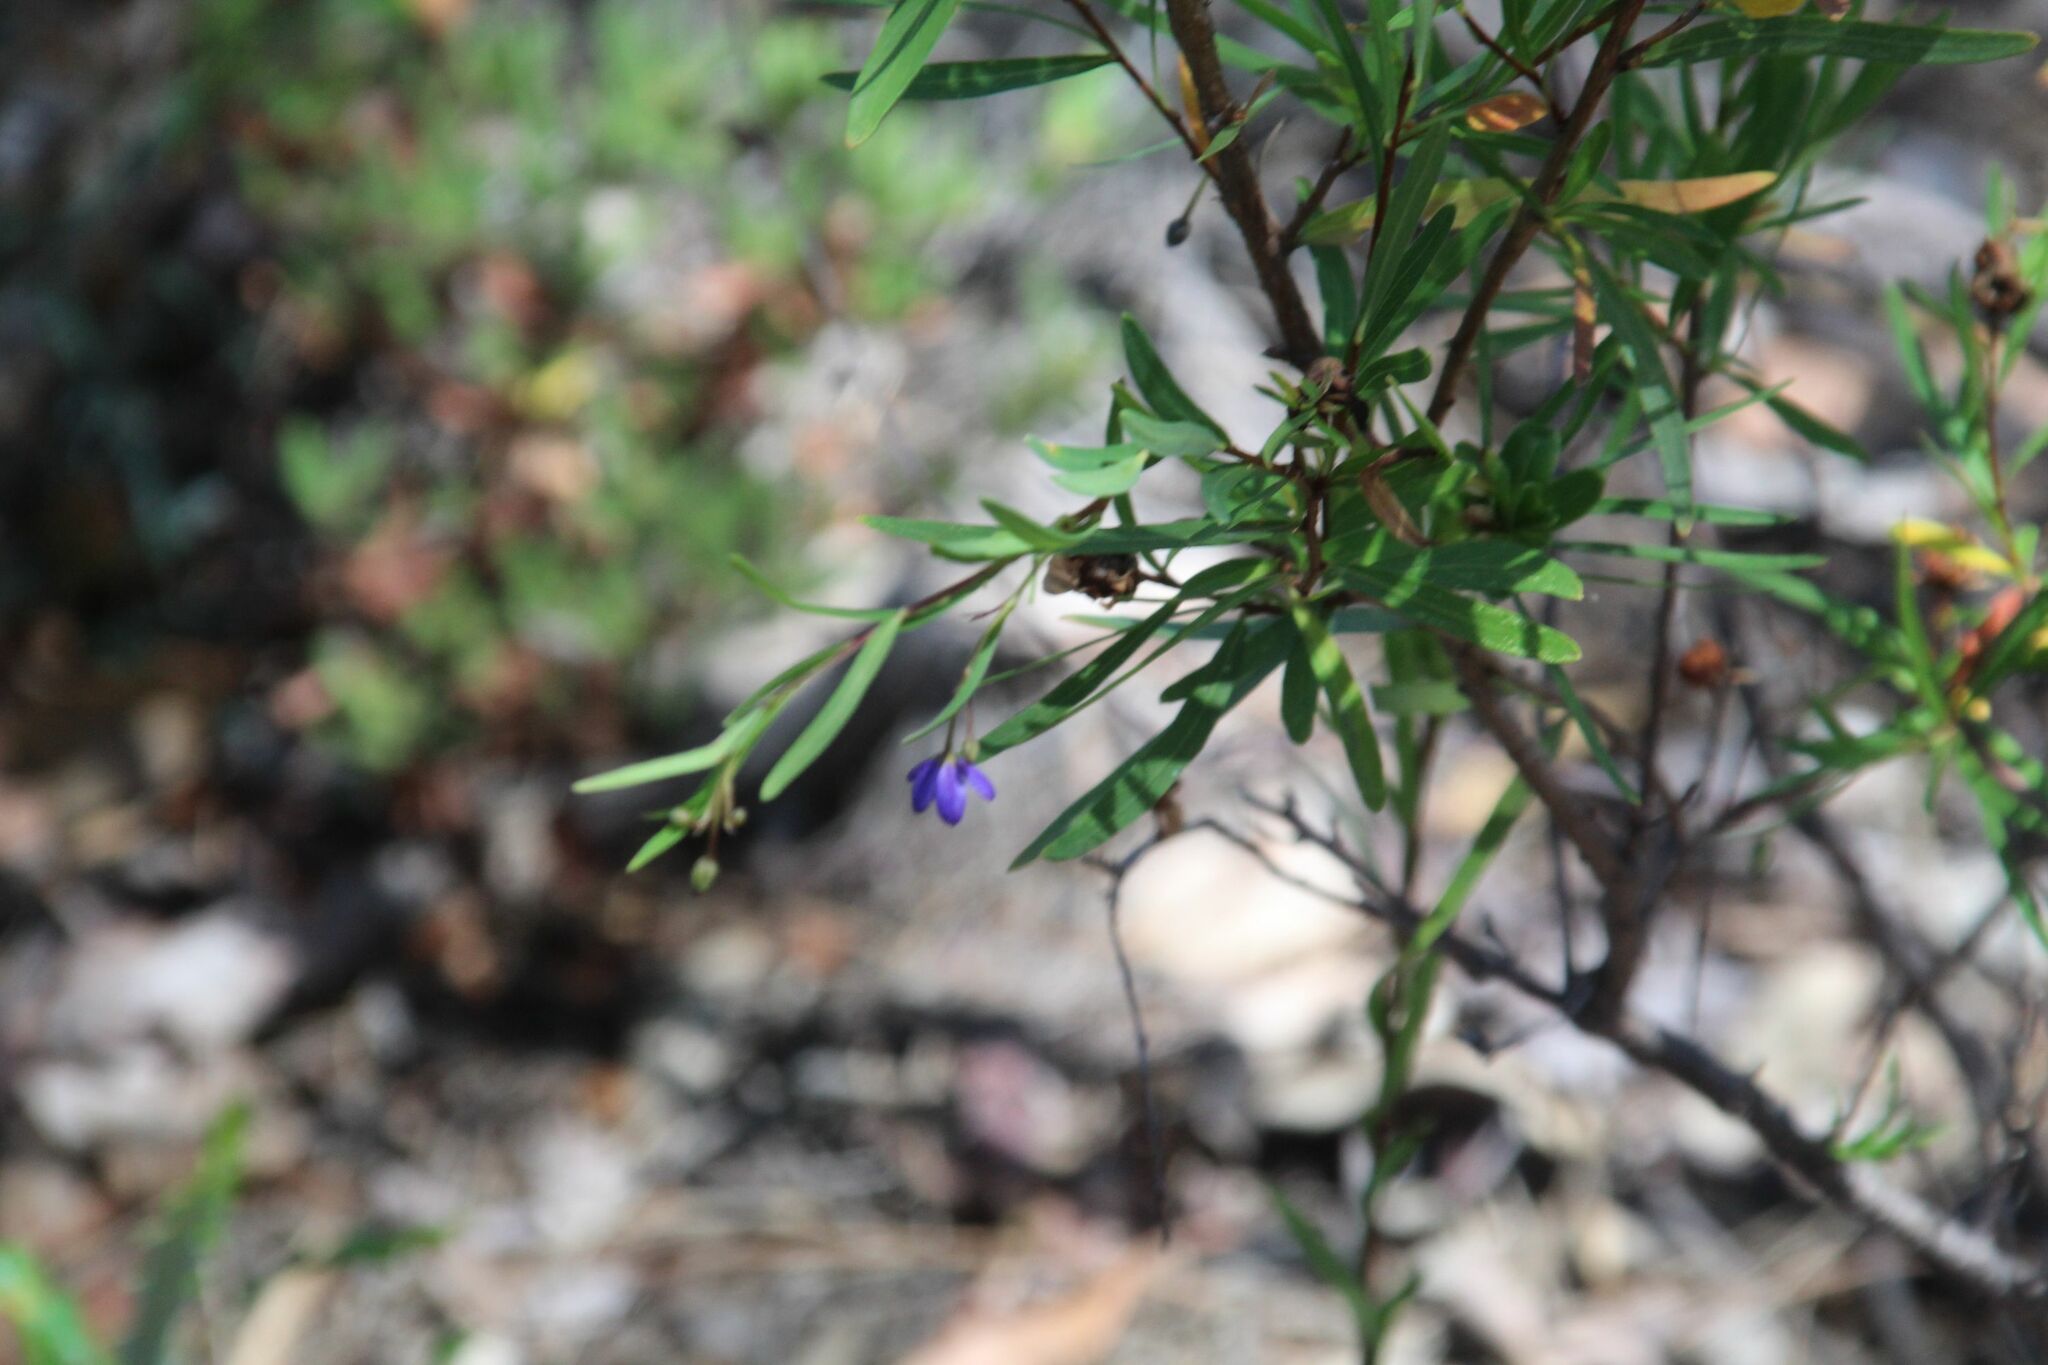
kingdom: Plantae
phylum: Tracheophyta
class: Magnoliopsida
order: Apiales
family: Pittosporaceae
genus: Billardiera
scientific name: Billardiera heterophylla
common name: Bluebell creeper
